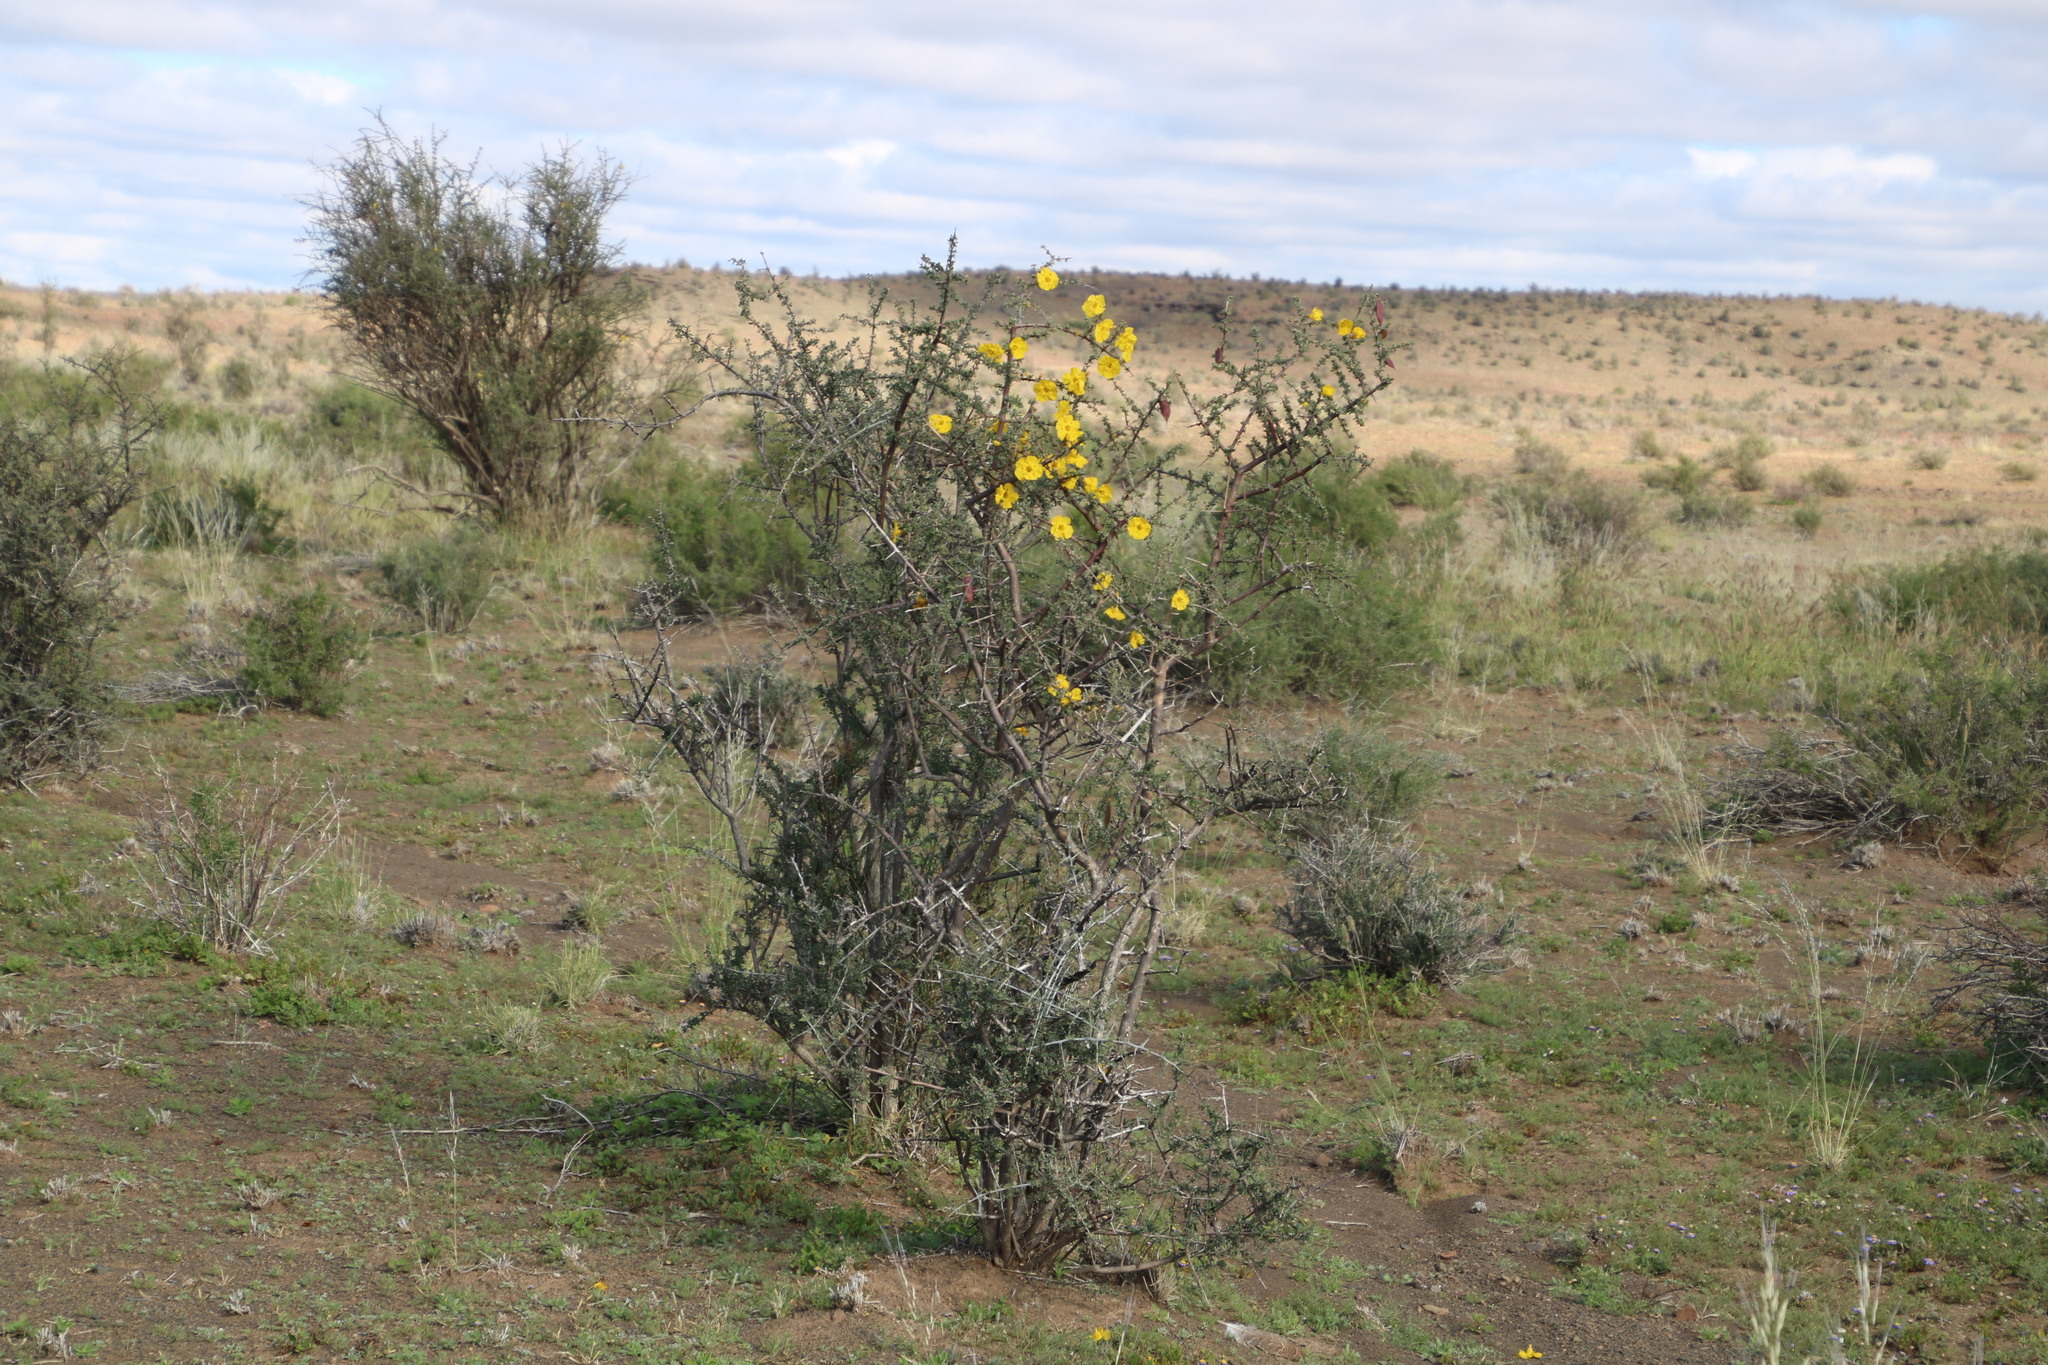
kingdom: Plantae
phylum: Tracheophyta
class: Magnoliopsida
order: Lamiales
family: Bignoniaceae
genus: Rhigozum
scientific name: Rhigozum obovatum
